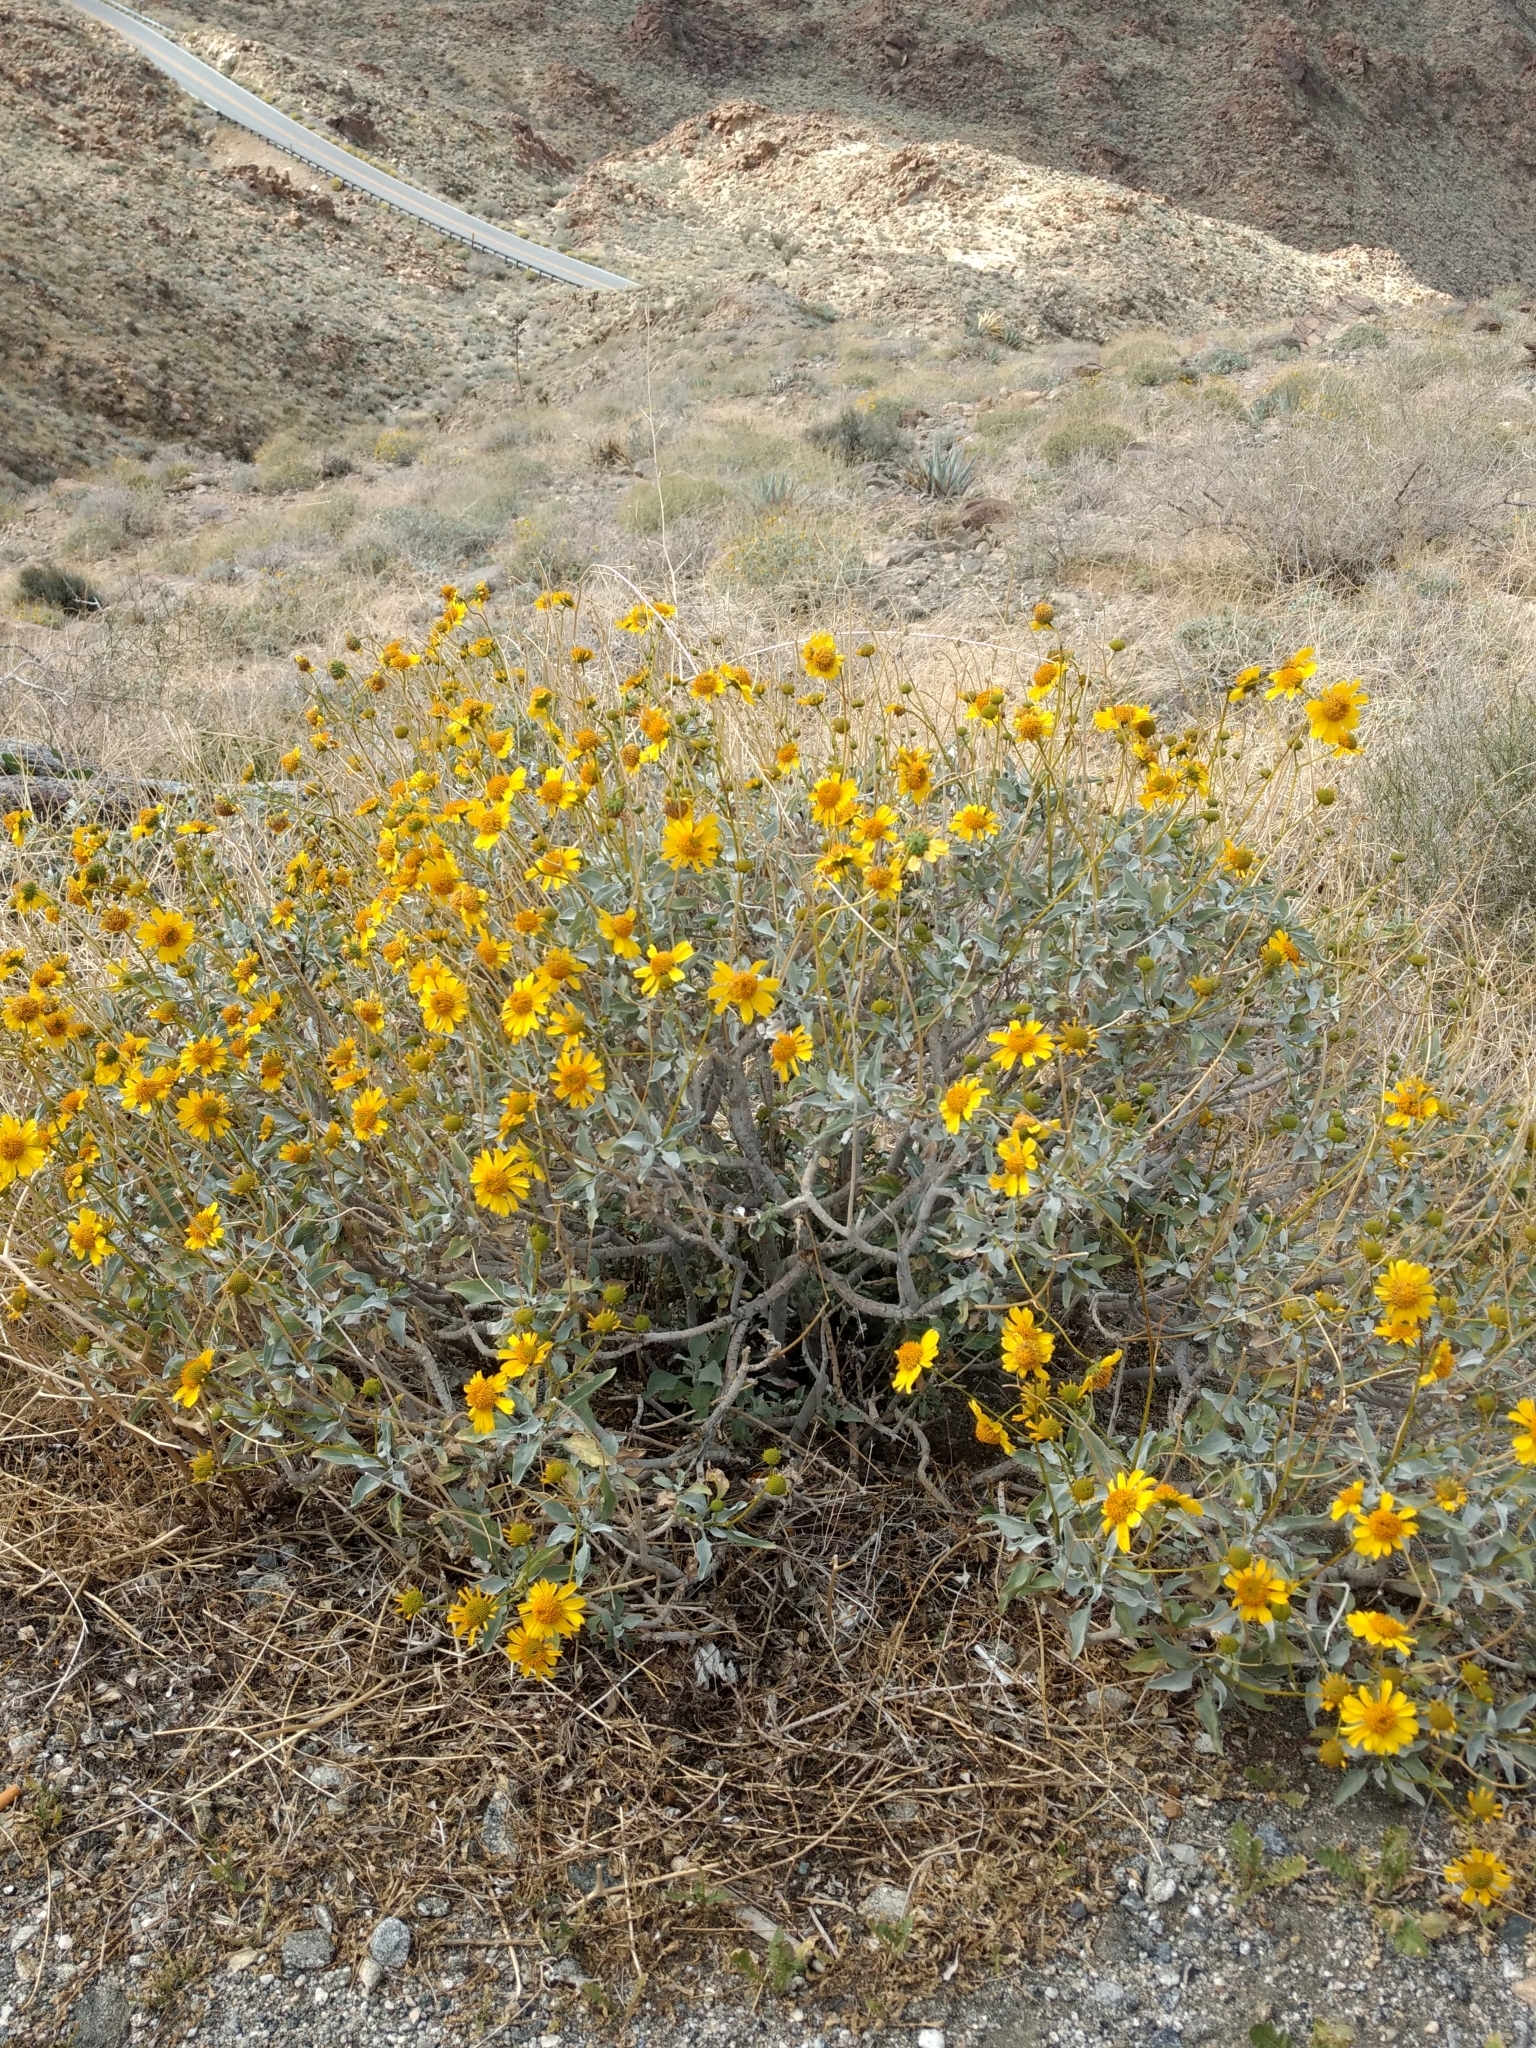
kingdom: Plantae
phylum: Tracheophyta
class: Magnoliopsida
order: Asterales
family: Asteraceae
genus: Encelia
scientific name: Encelia farinosa
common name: Brittlebush
